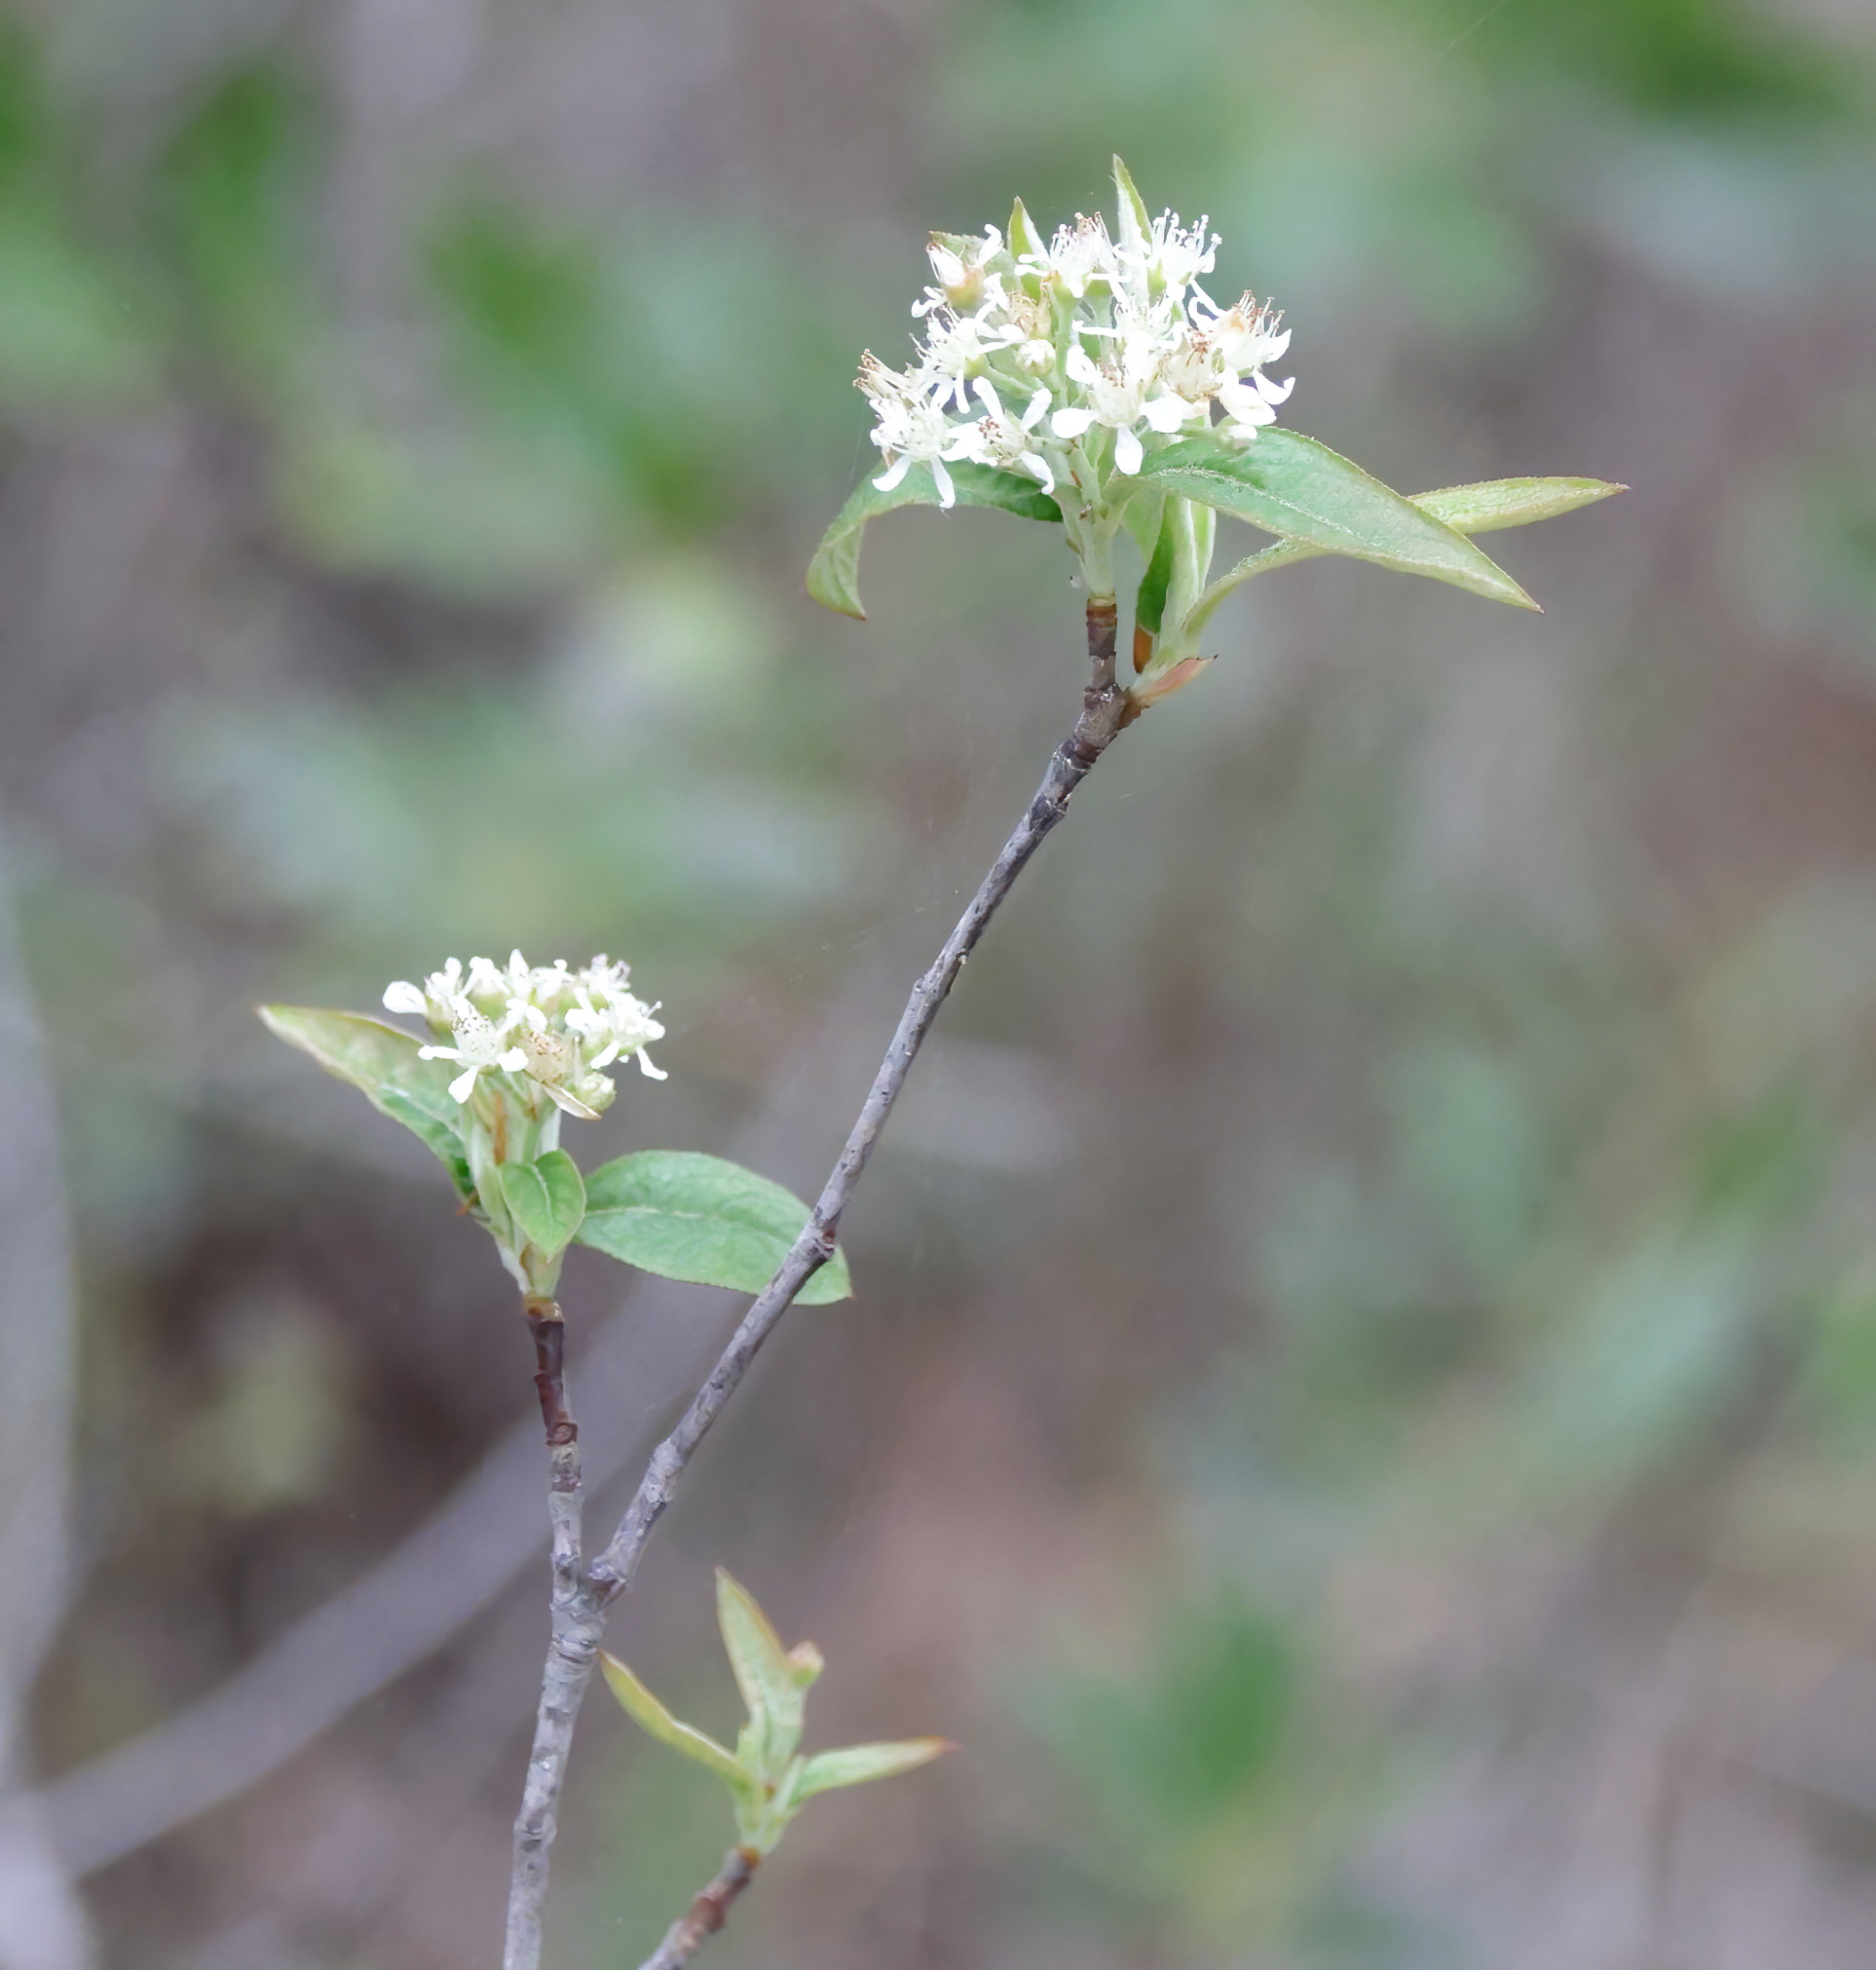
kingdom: Plantae
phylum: Tracheophyta
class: Magnoliopsida
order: Rosales
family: Rosaceae
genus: Aronia
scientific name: Aronia arbutifolia
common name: Red chokeberry
